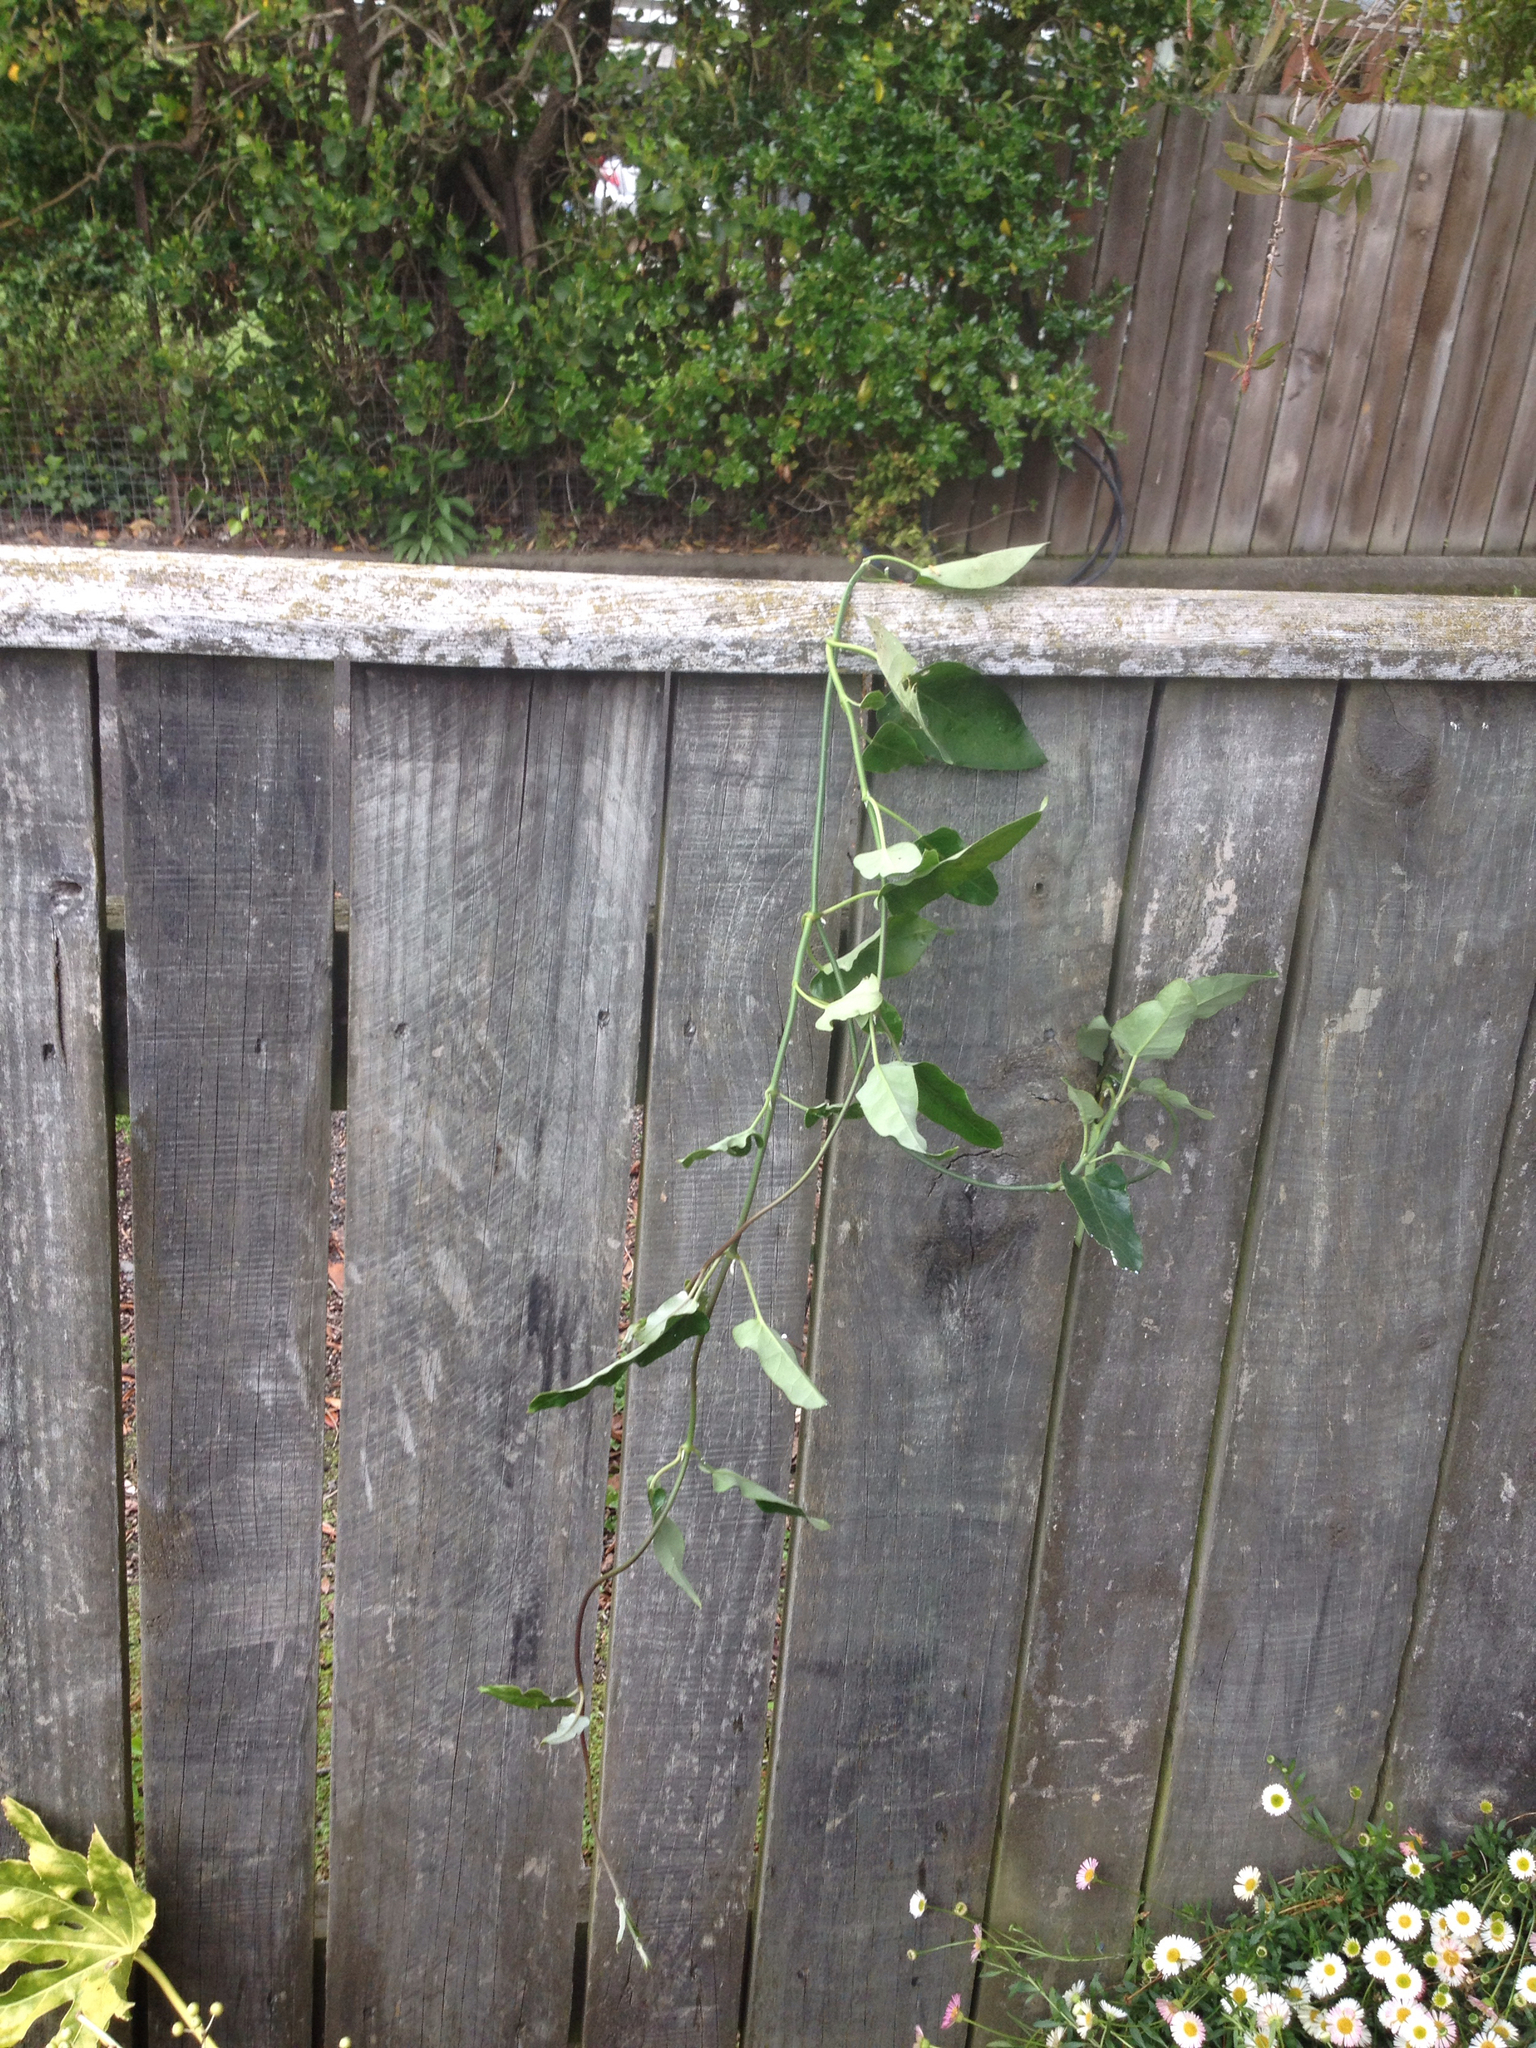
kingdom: Plantae
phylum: Tracheophyta
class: Magnoliopsida
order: Gentianales
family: Apocynaceae
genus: Araujia
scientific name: Araujia sericifera
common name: White bladderflower
